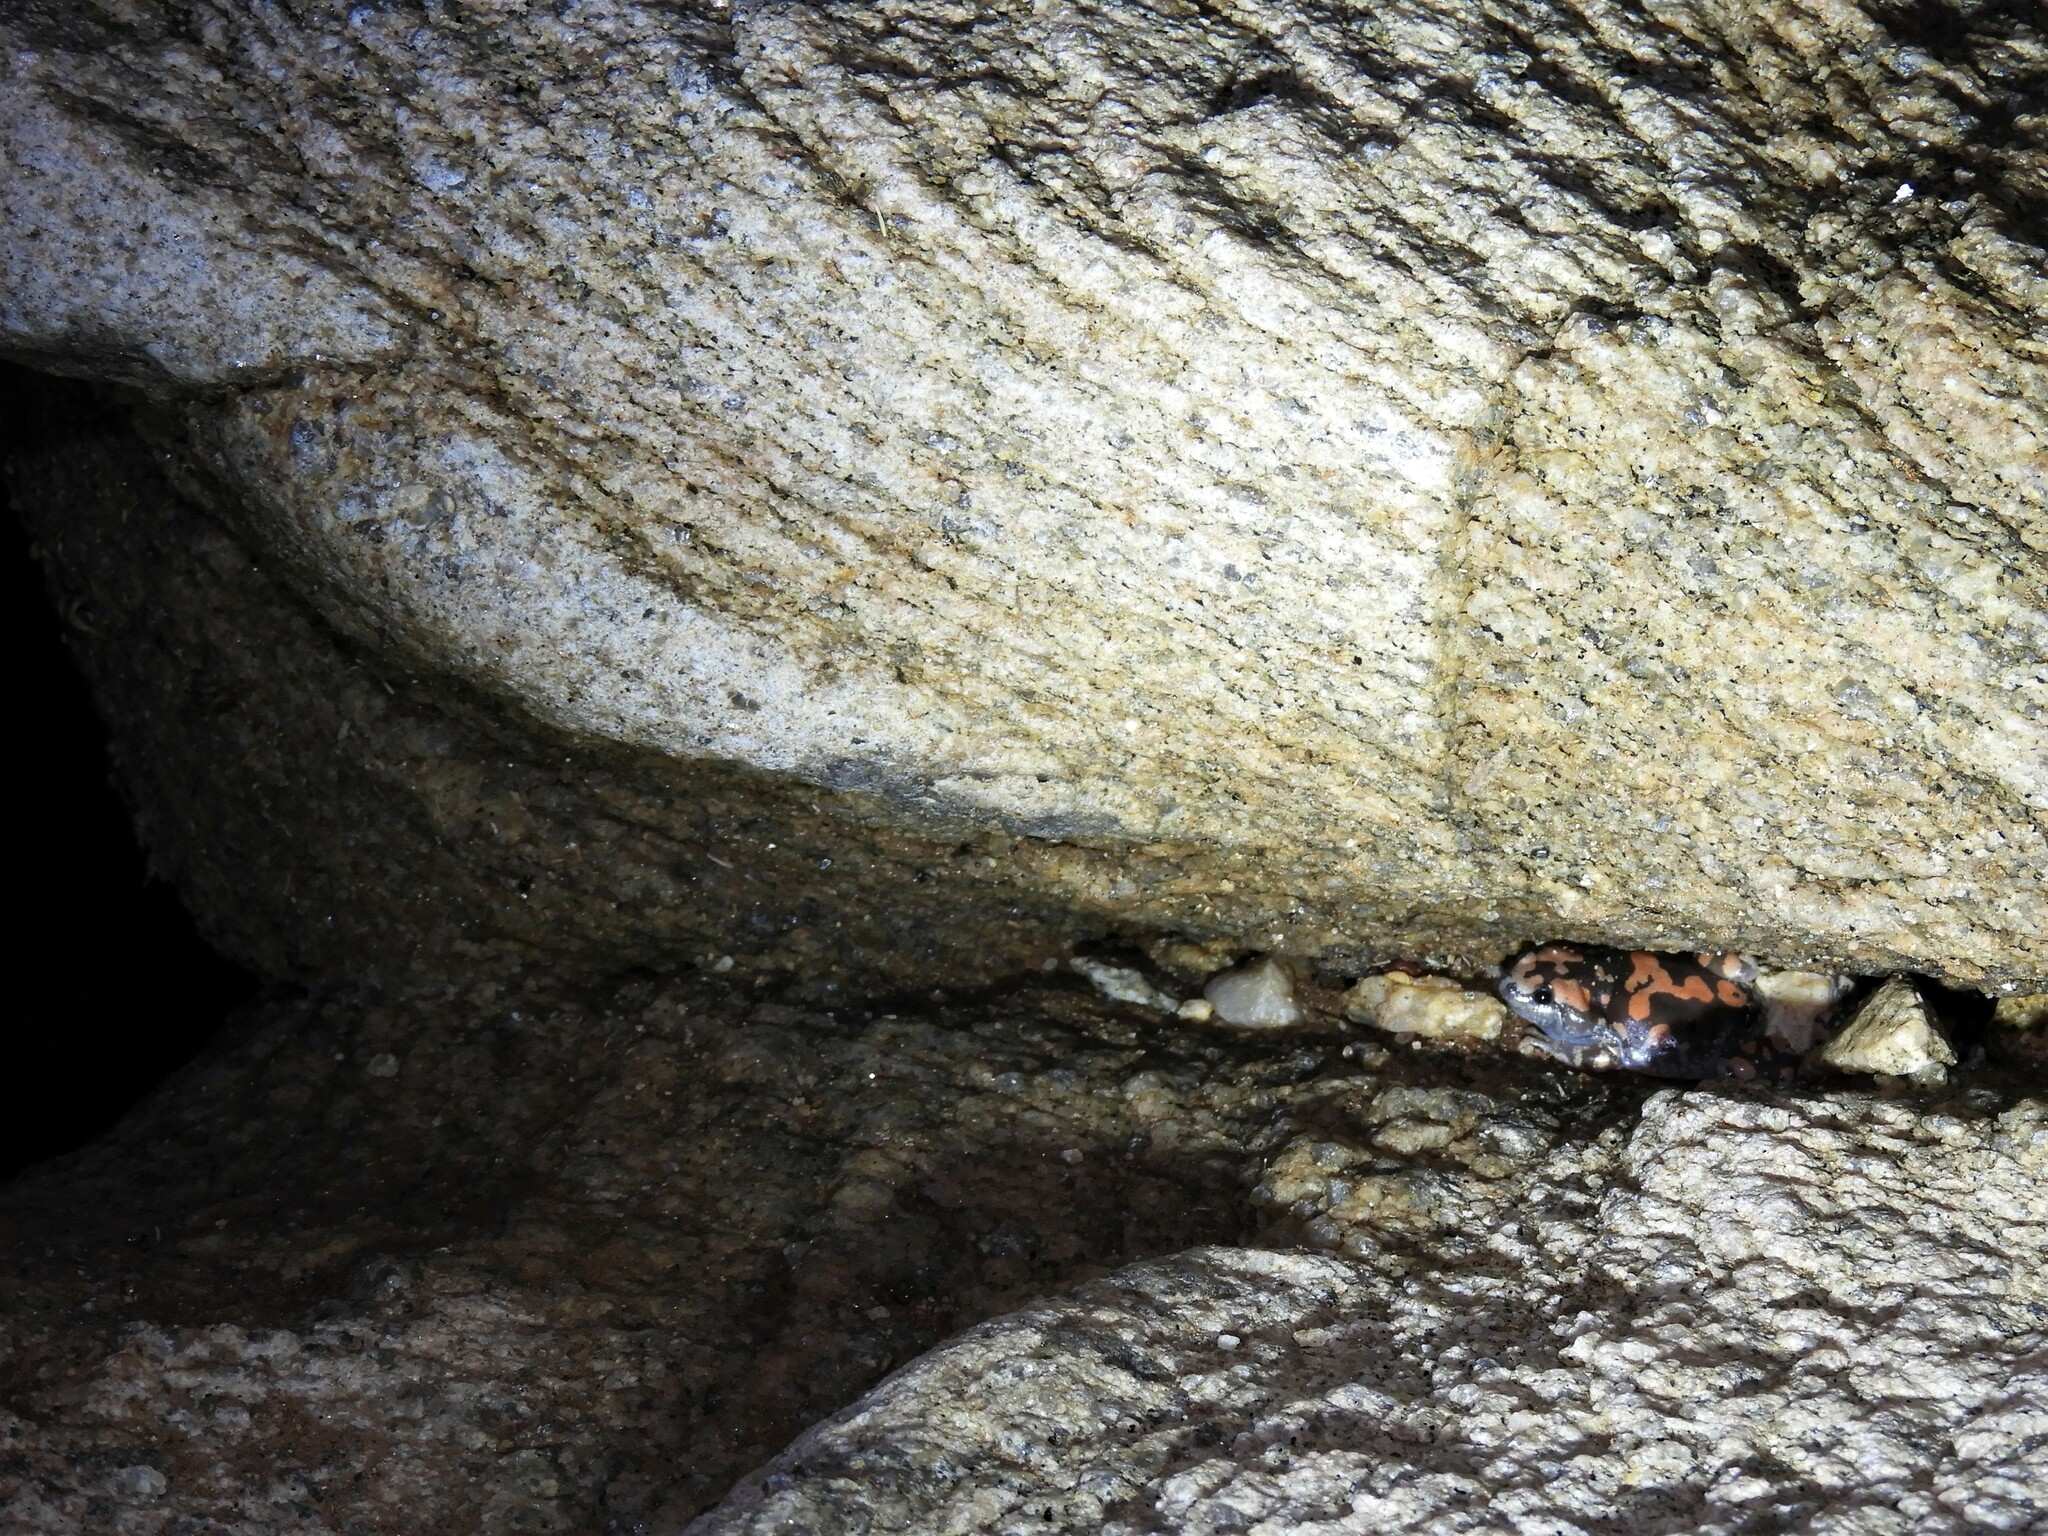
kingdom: Animalia
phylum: Chordata
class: Amphibia
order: Anura
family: Microhylidae
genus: Phrynomantis
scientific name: Phrynomantis annectens
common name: Marbled rubber frog
